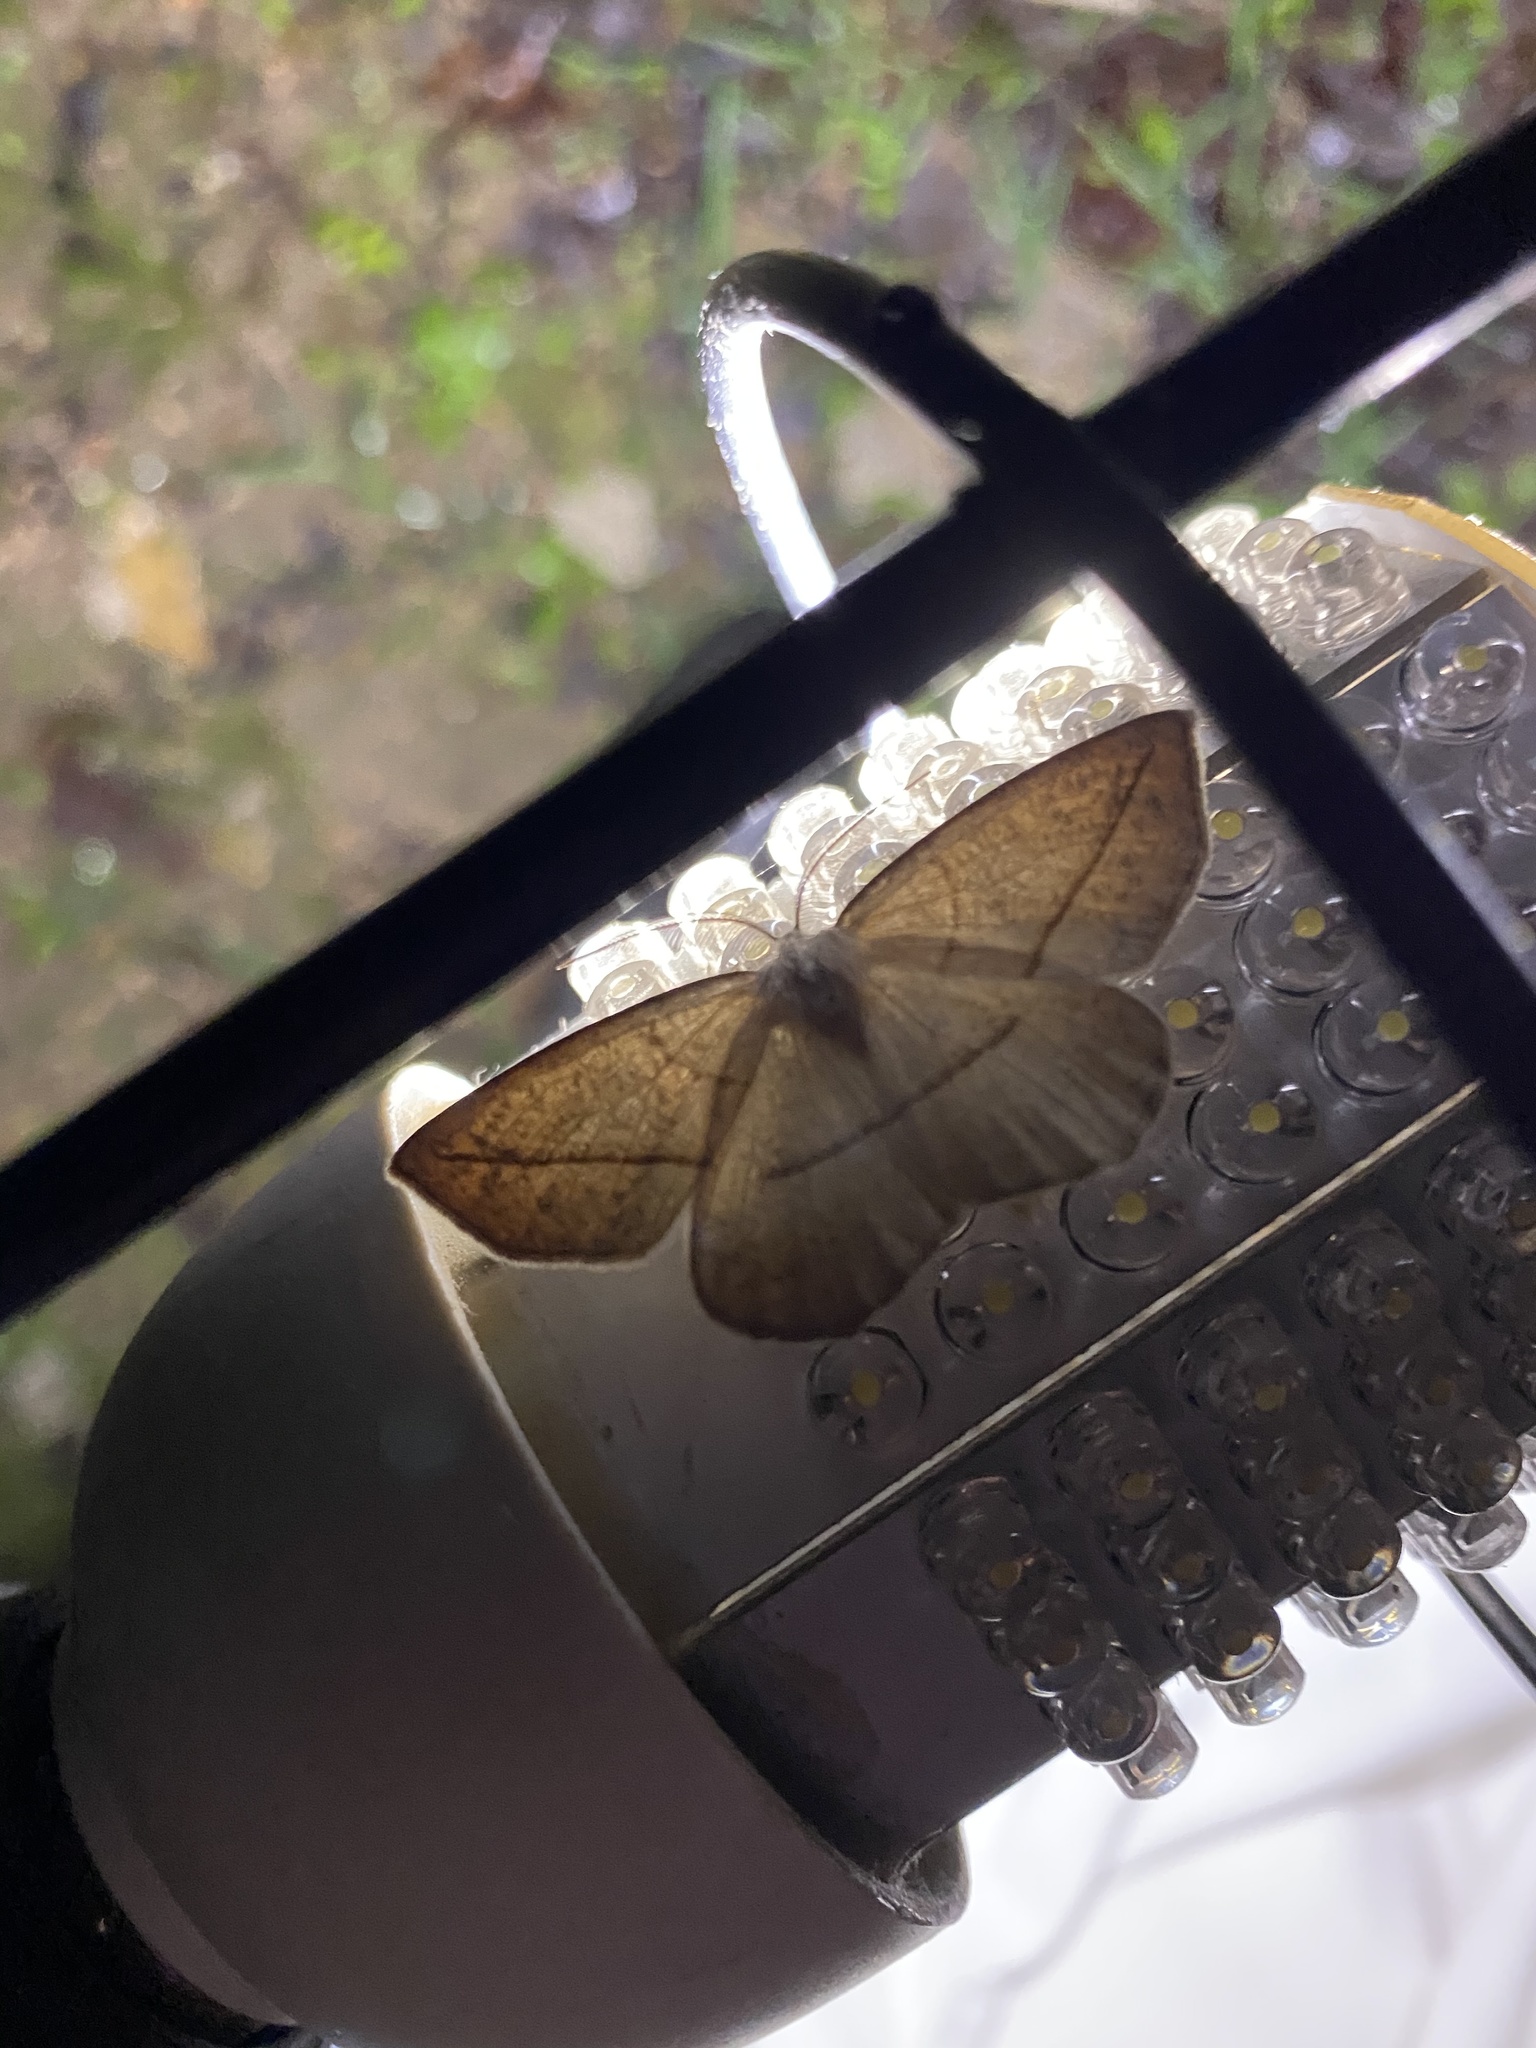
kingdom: Animalia
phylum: Arthropoda
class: Insecta
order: Lepidoptera
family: Geometridae
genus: Eusarca
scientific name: Eusarca confusaria
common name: Confused eusarca
